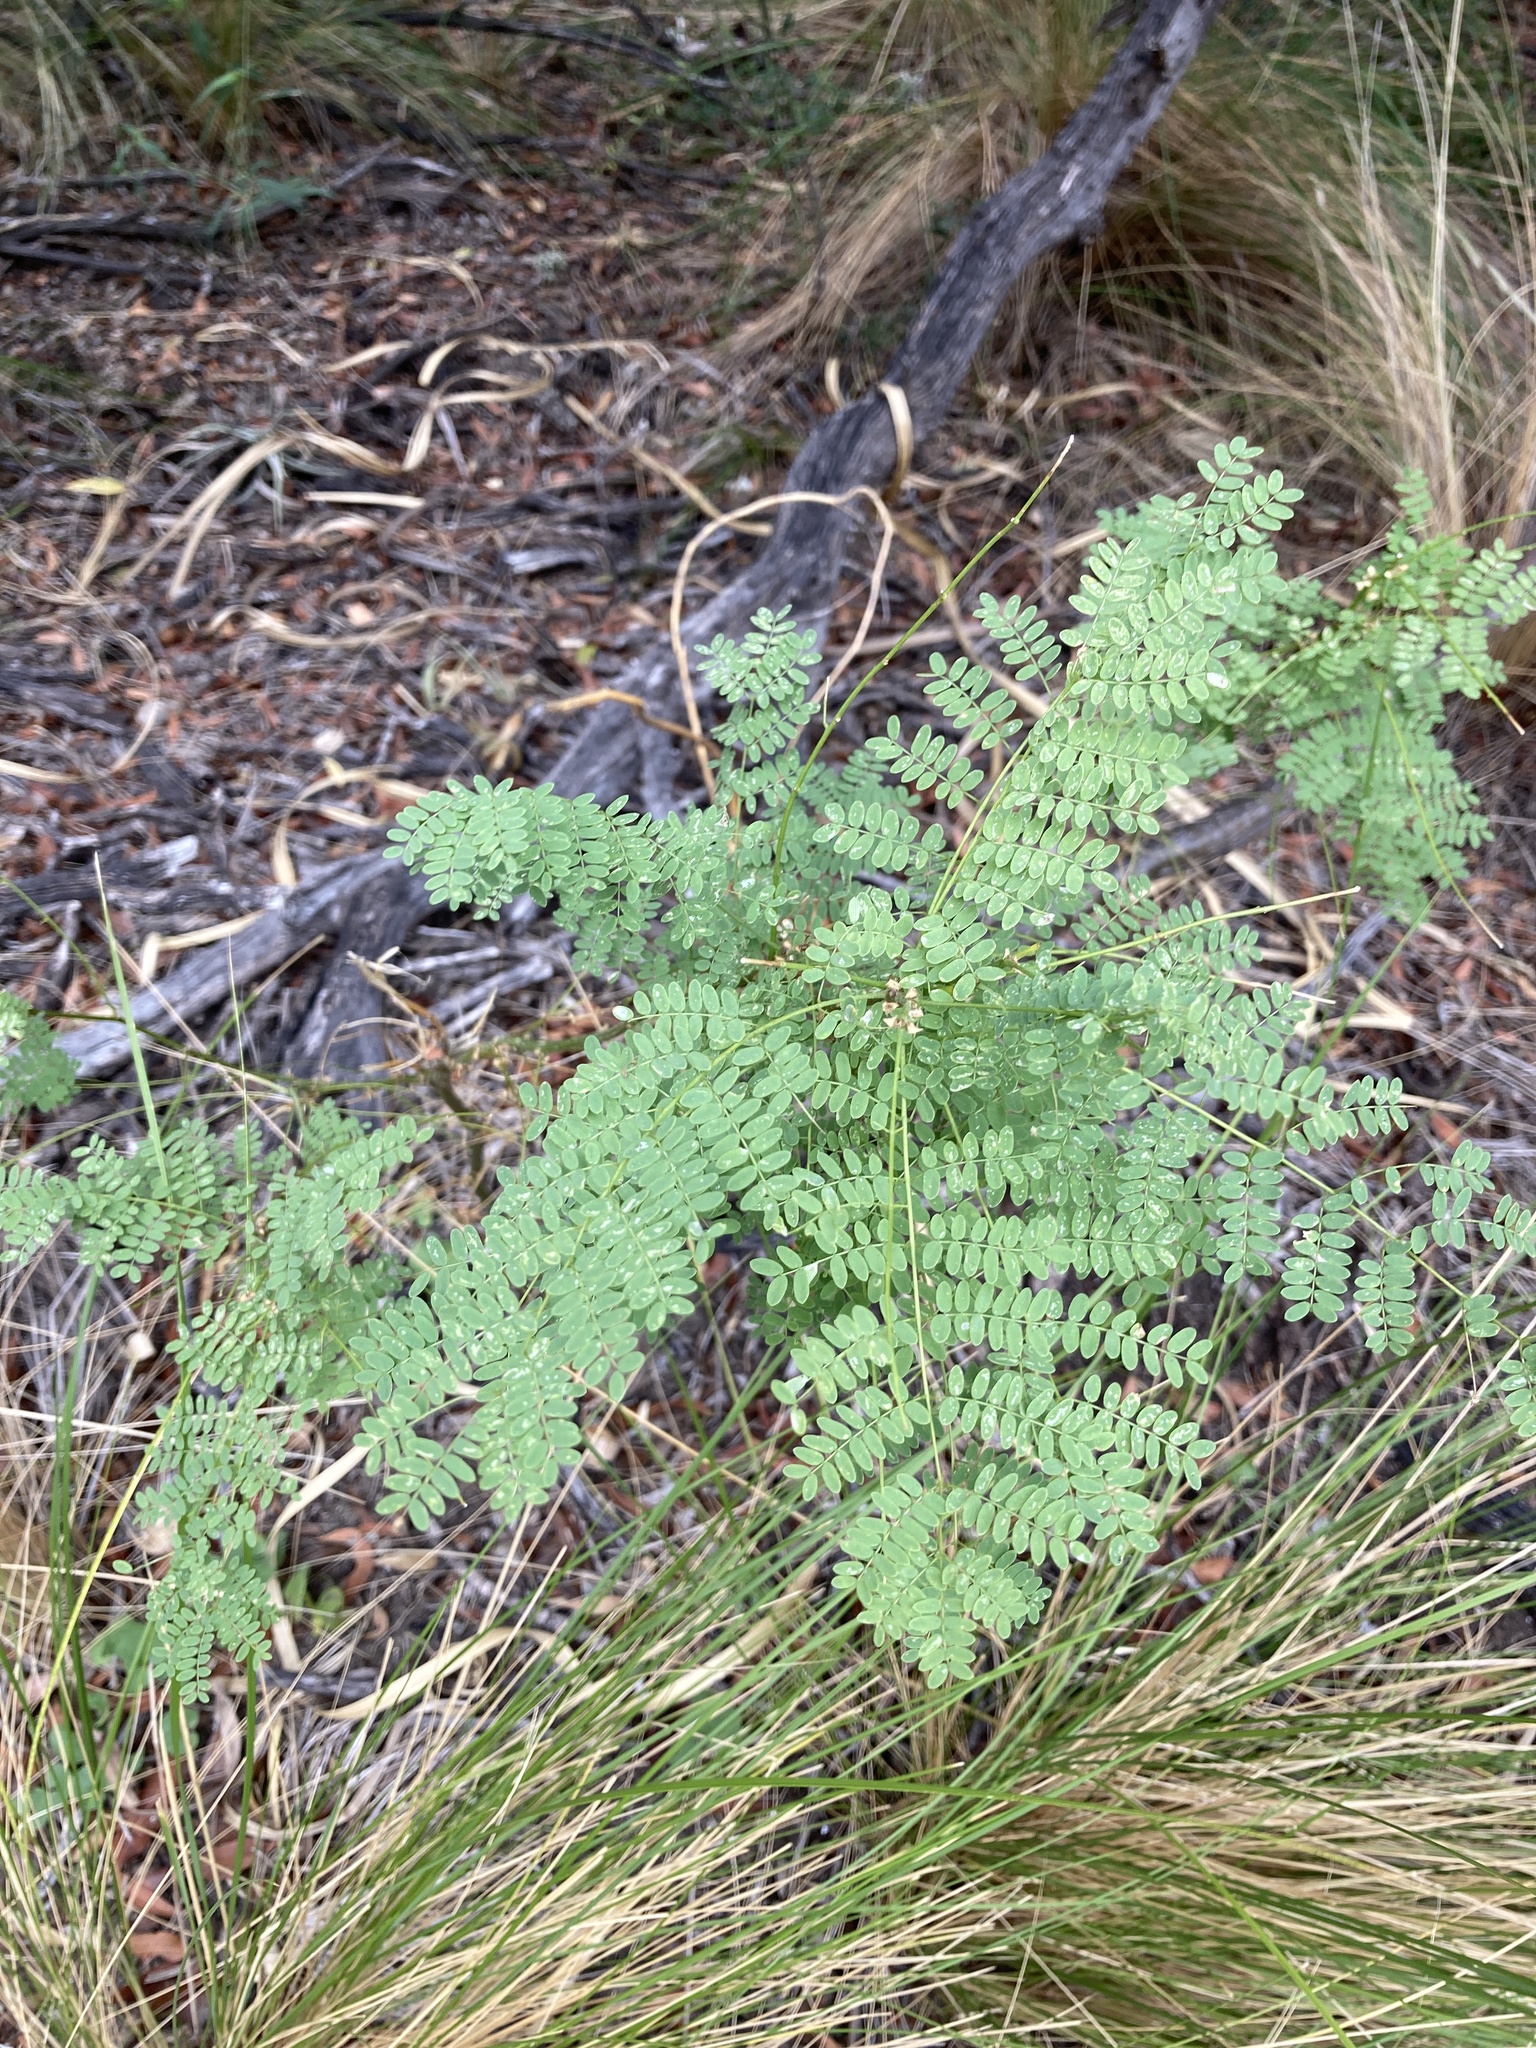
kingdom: Plantae
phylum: Tracheophyta
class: Magnoliopsida
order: Fabales
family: Fabaceae
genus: Erythrostemon
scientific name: Erythrostemon gilliesii
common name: Bird-of-paradise shrub
